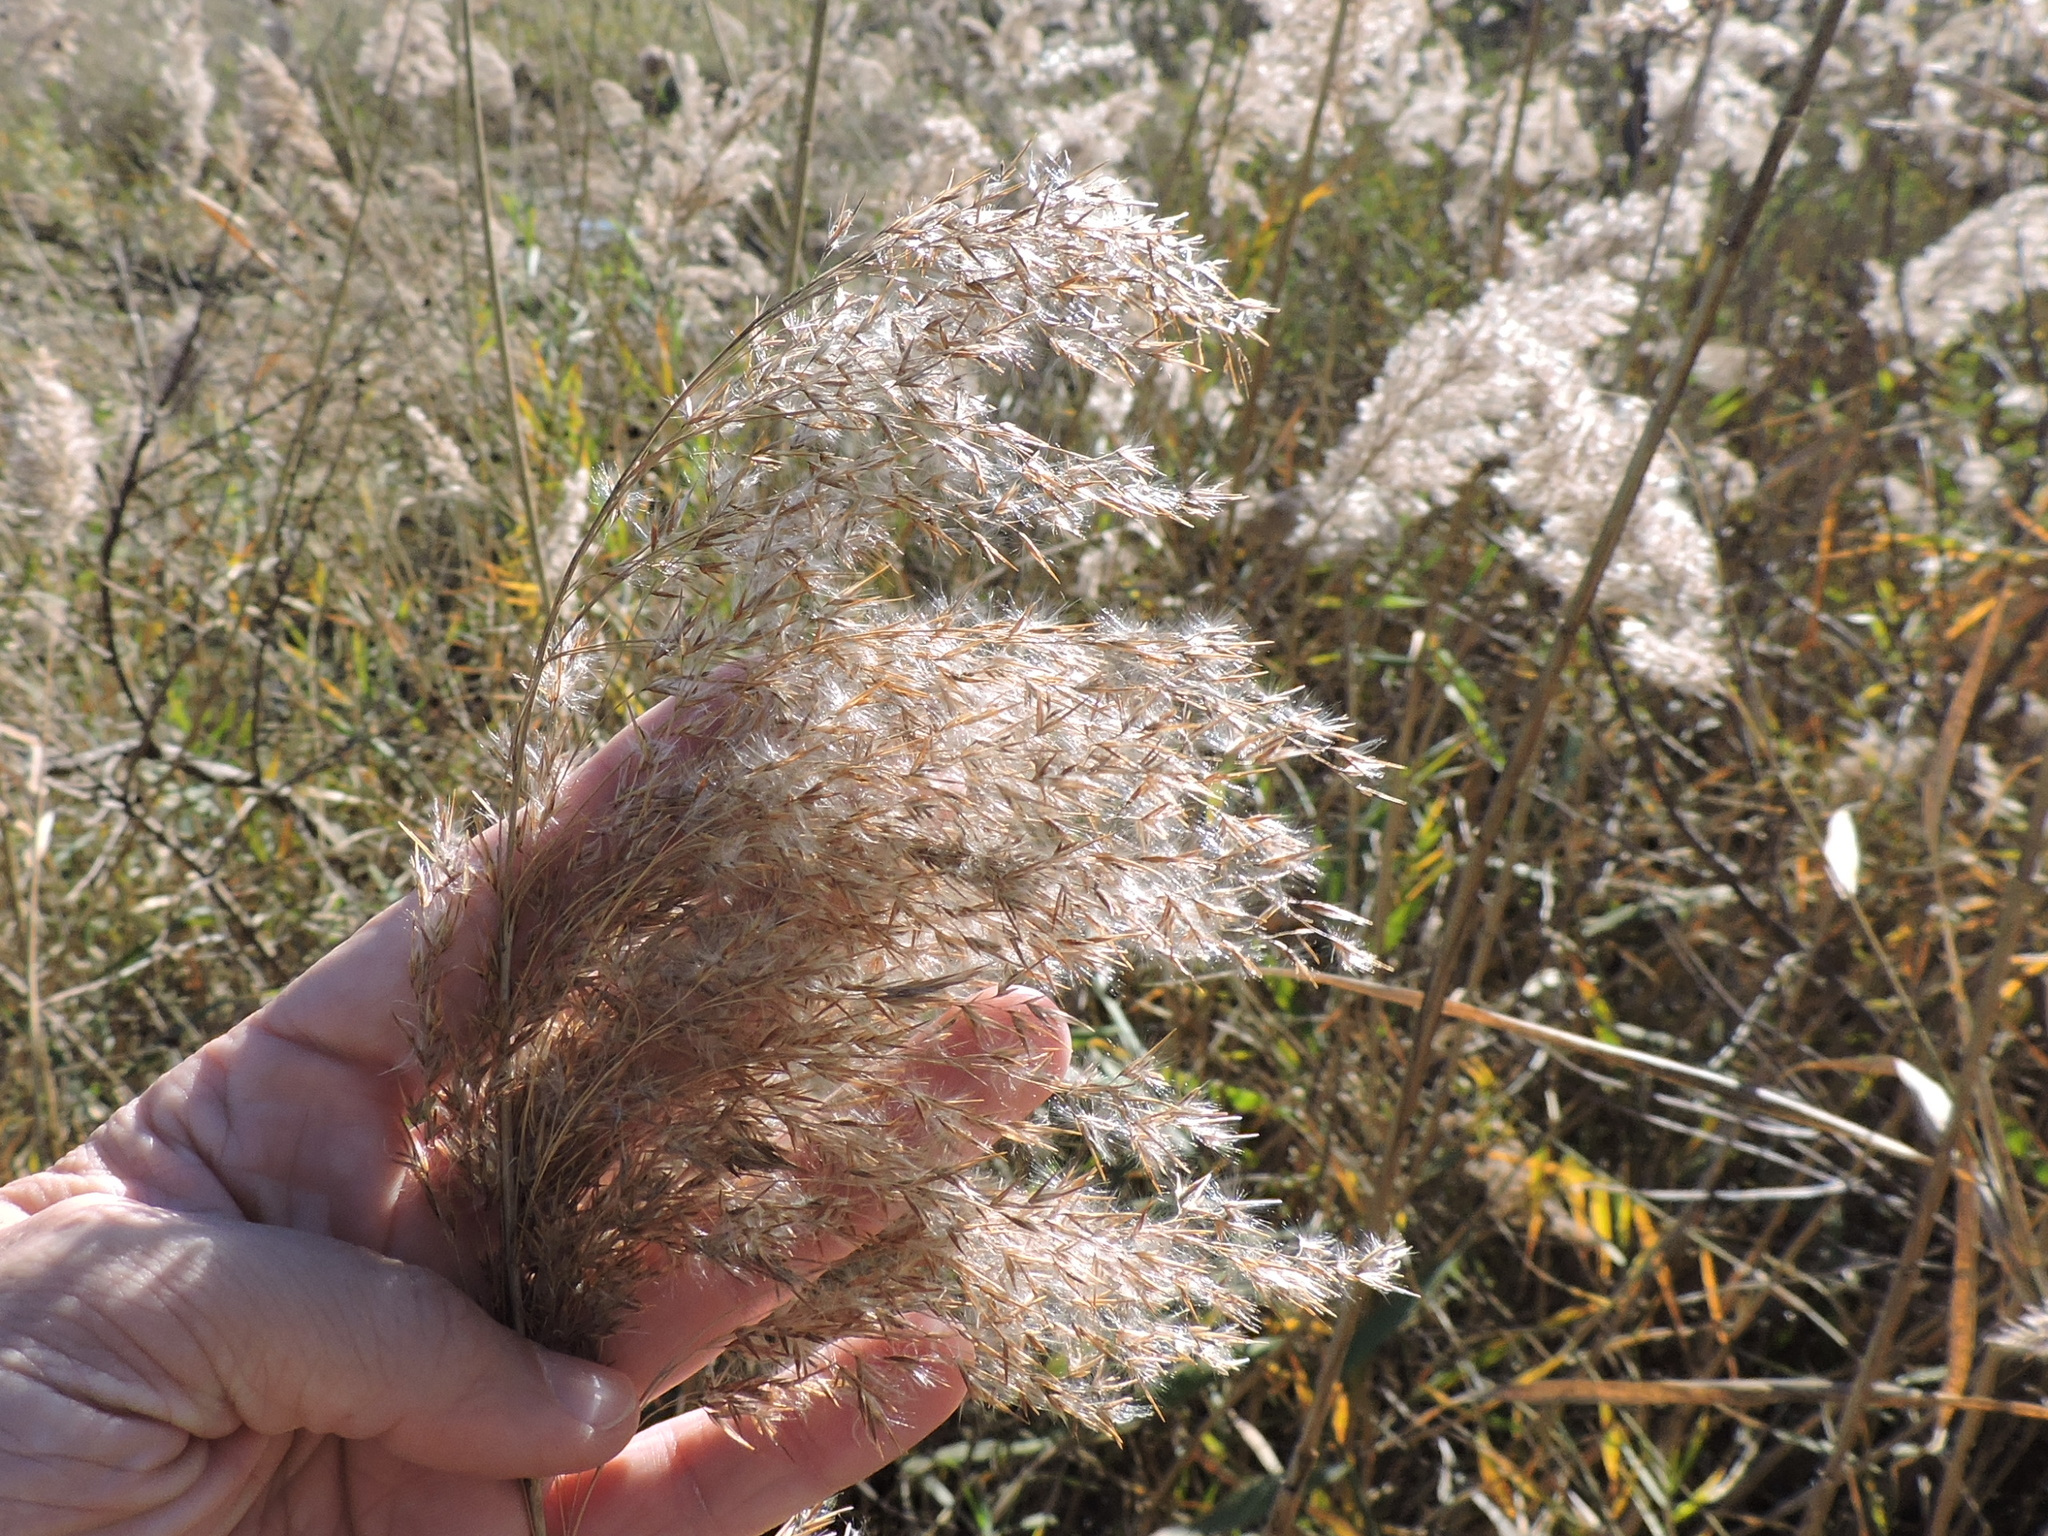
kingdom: Plantae
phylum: Tracheophyta
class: Liliopsida
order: Poales
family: Poaceae
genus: Phragmites
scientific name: Phragmites australis
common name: Common reed
